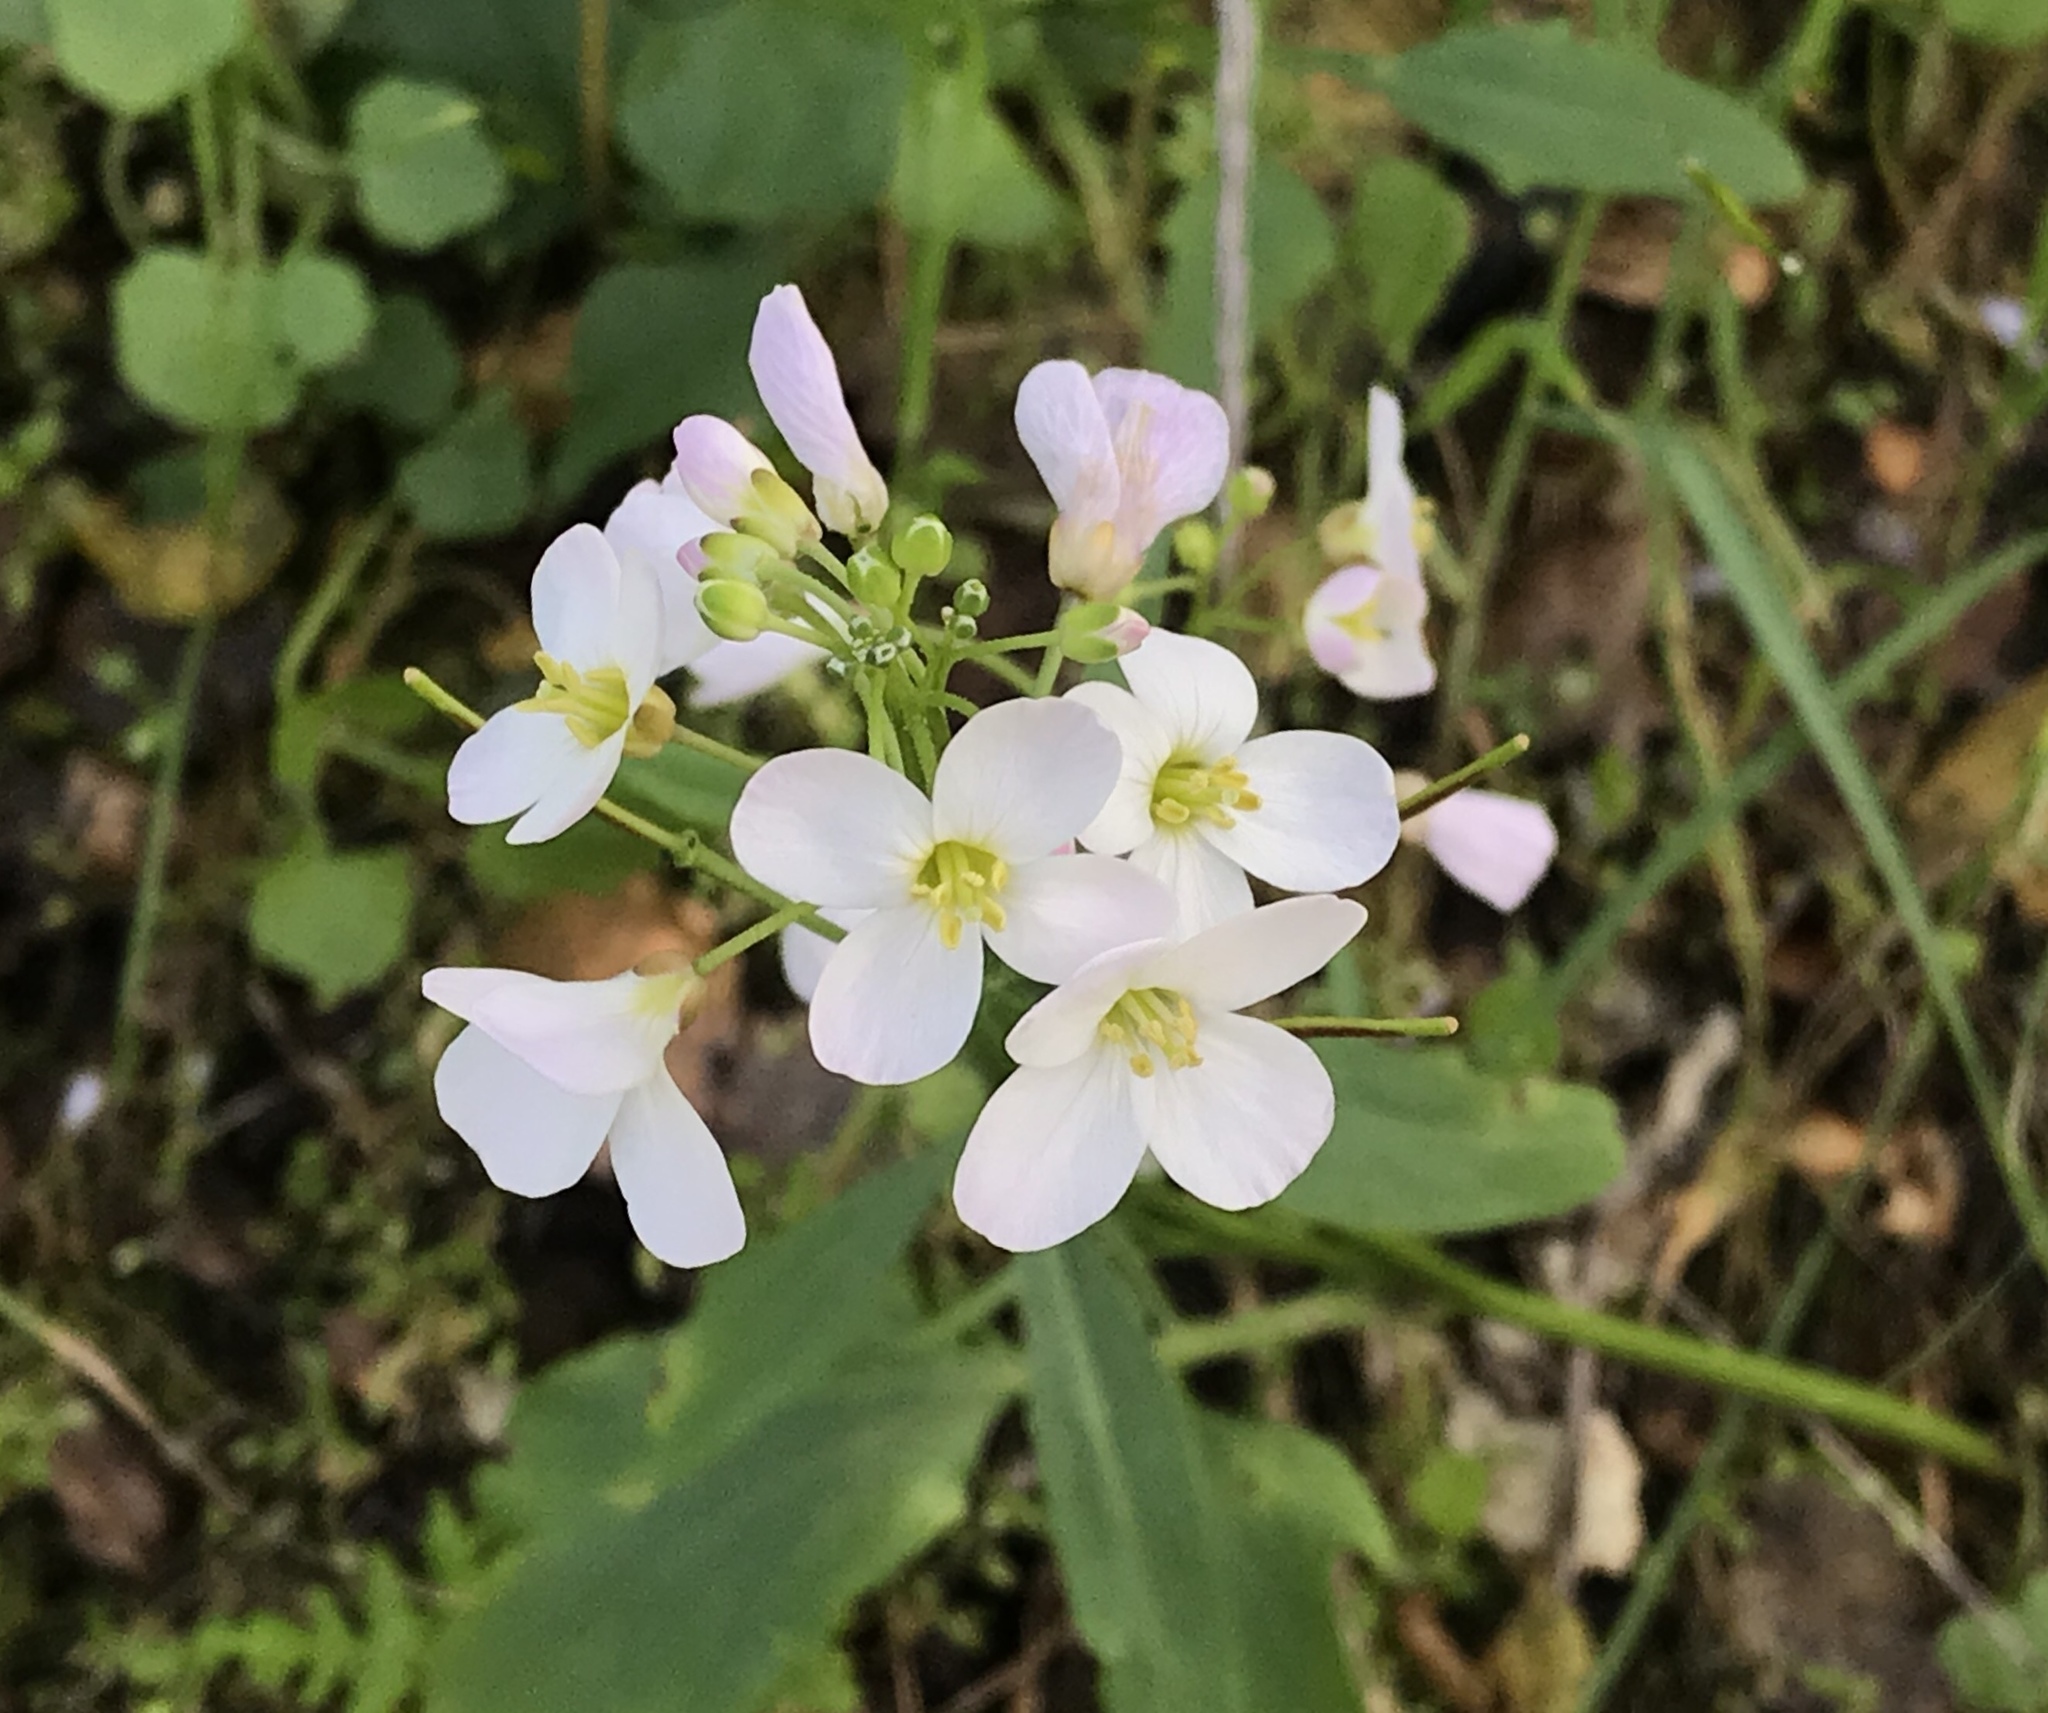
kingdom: Plantae
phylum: Tracheophyta
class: Magnoliopsida
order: Brassicales
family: Brassicaceae
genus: Cardamine
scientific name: Cardamine californica
